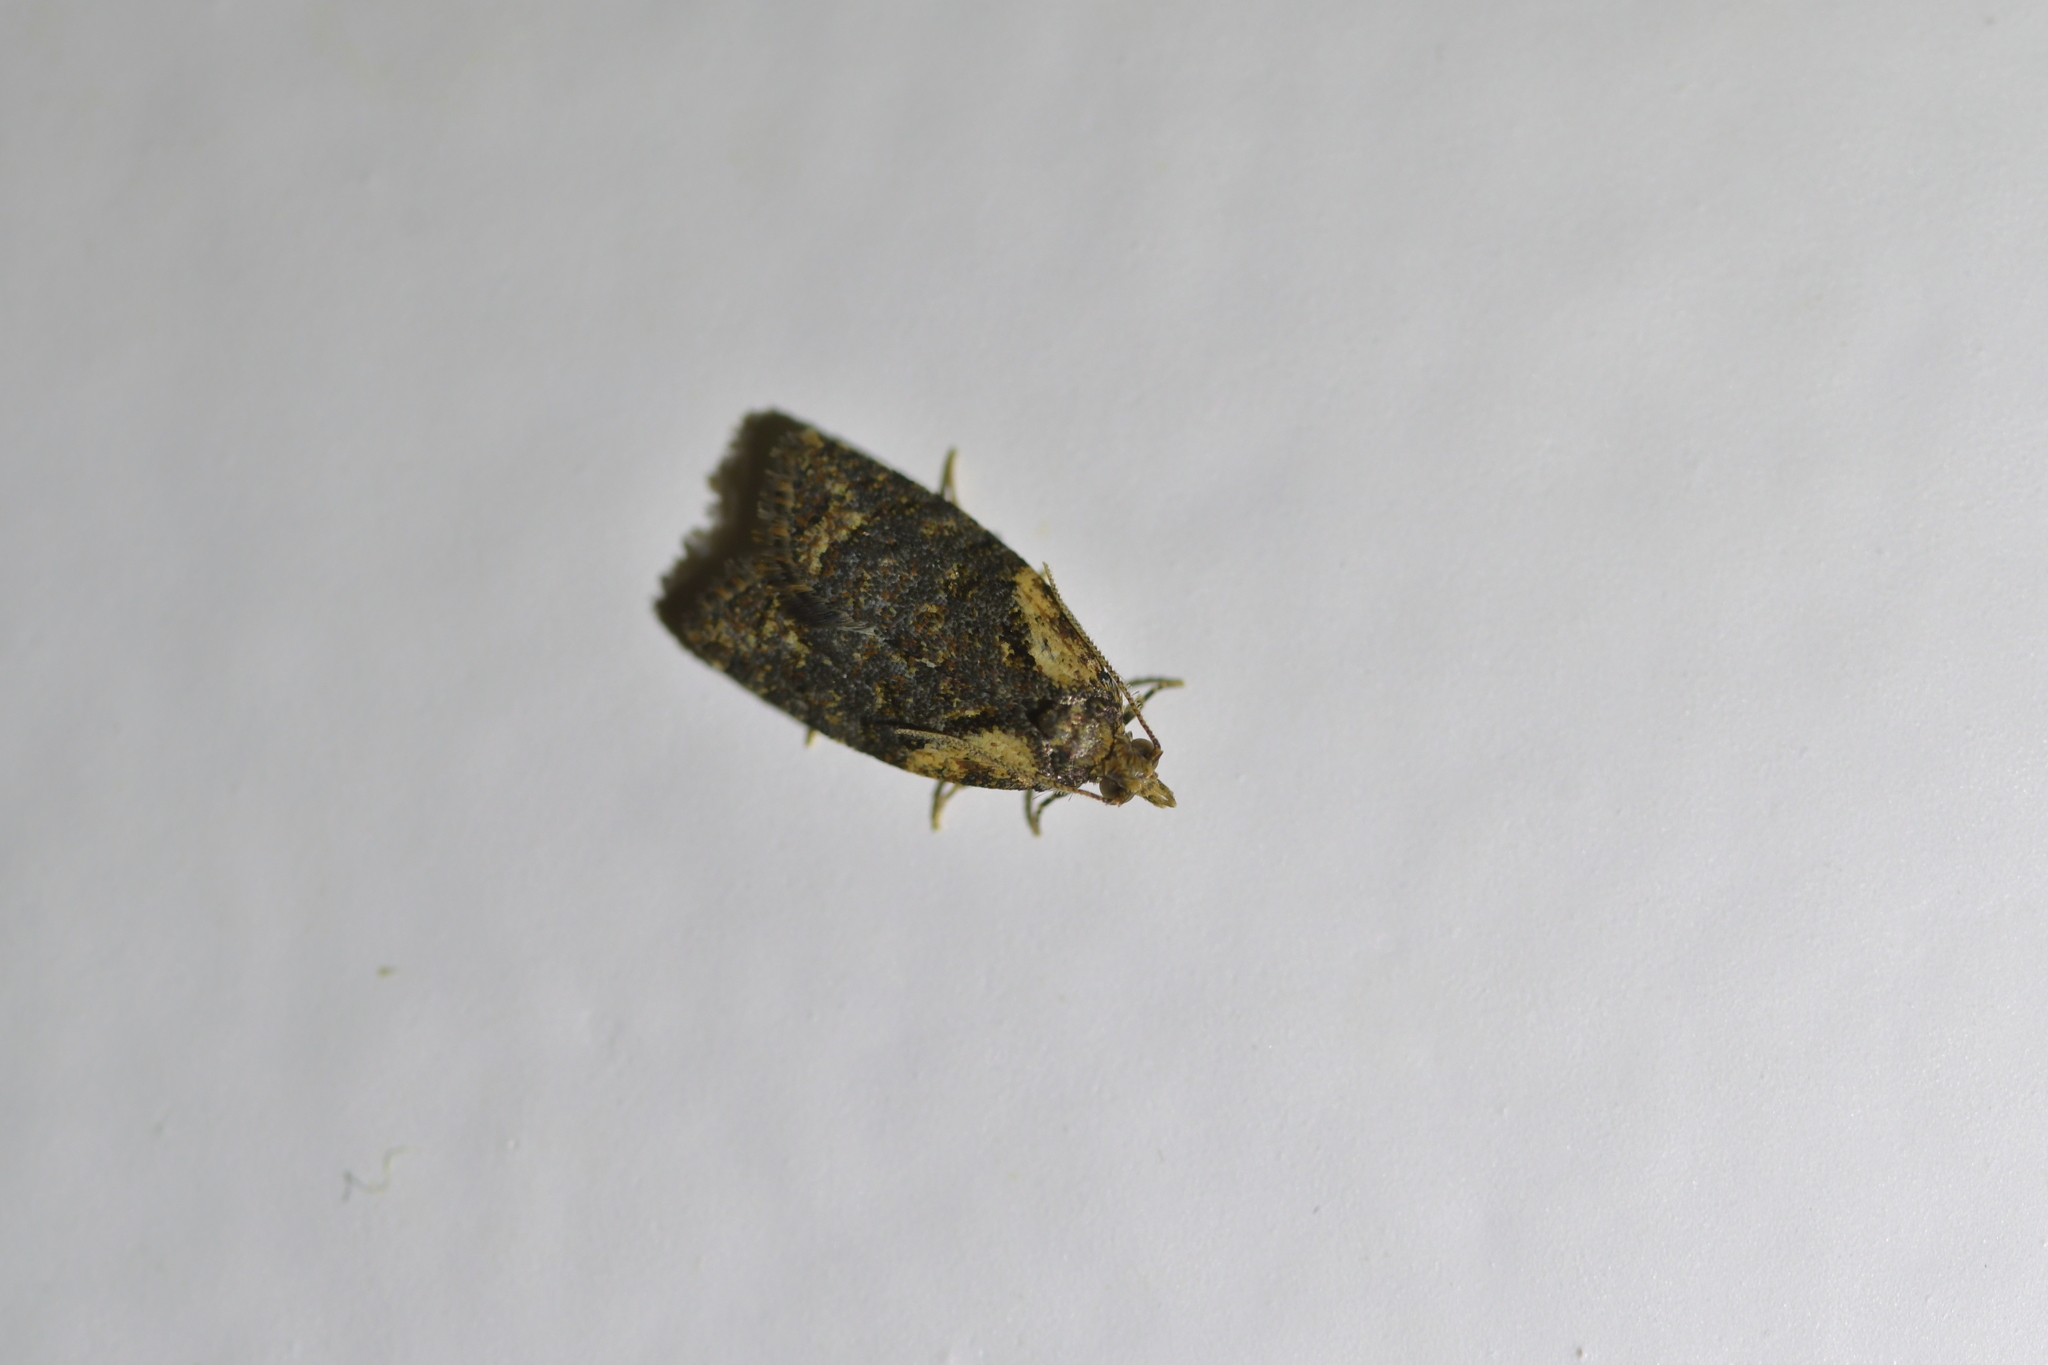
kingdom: Animalia
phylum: Arthropoda
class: Insecta
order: Lepidoptera
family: Tortricidae
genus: Capua
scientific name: Capua intractana
